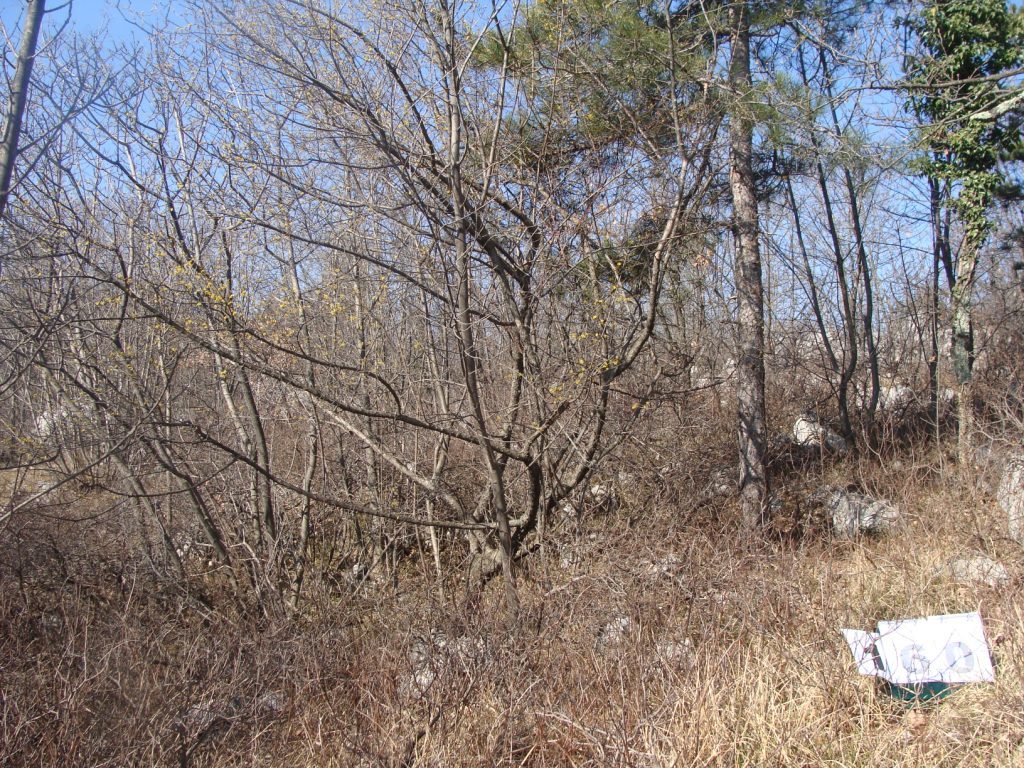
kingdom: Plantae
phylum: Tracheophyta
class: Magnoliopsida
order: Cornales
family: Cornaceae
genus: Cornus
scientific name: Cornus mas
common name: Cornelian-cherry
